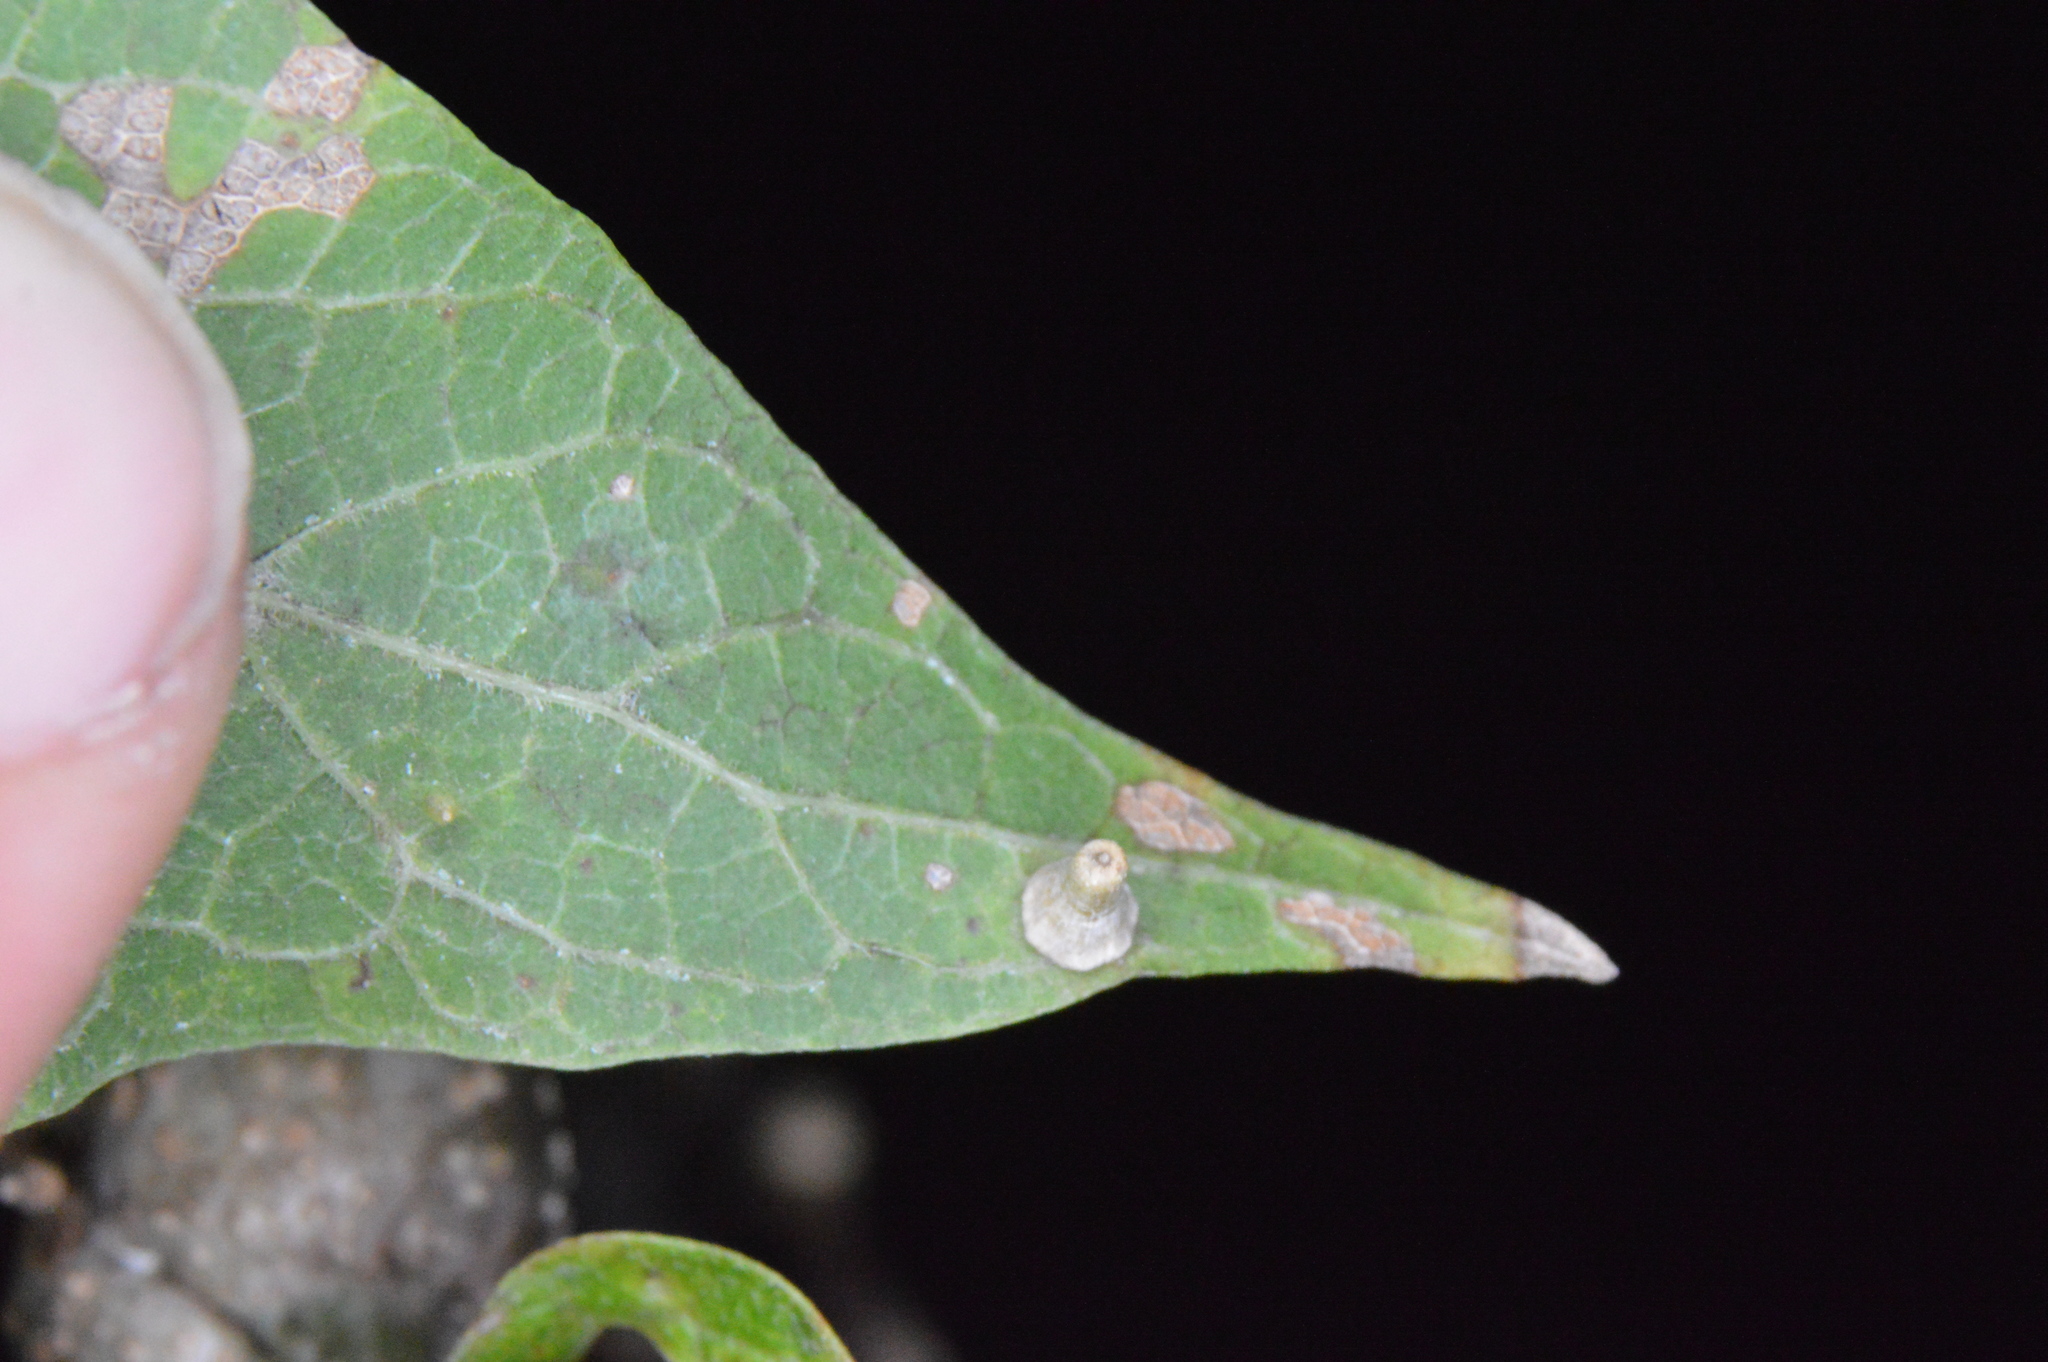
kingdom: Animalia
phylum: Arthropoda
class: Insecta
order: Diptera
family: Cecidomyiidae
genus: Celticecis
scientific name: Celticecis aciculata
